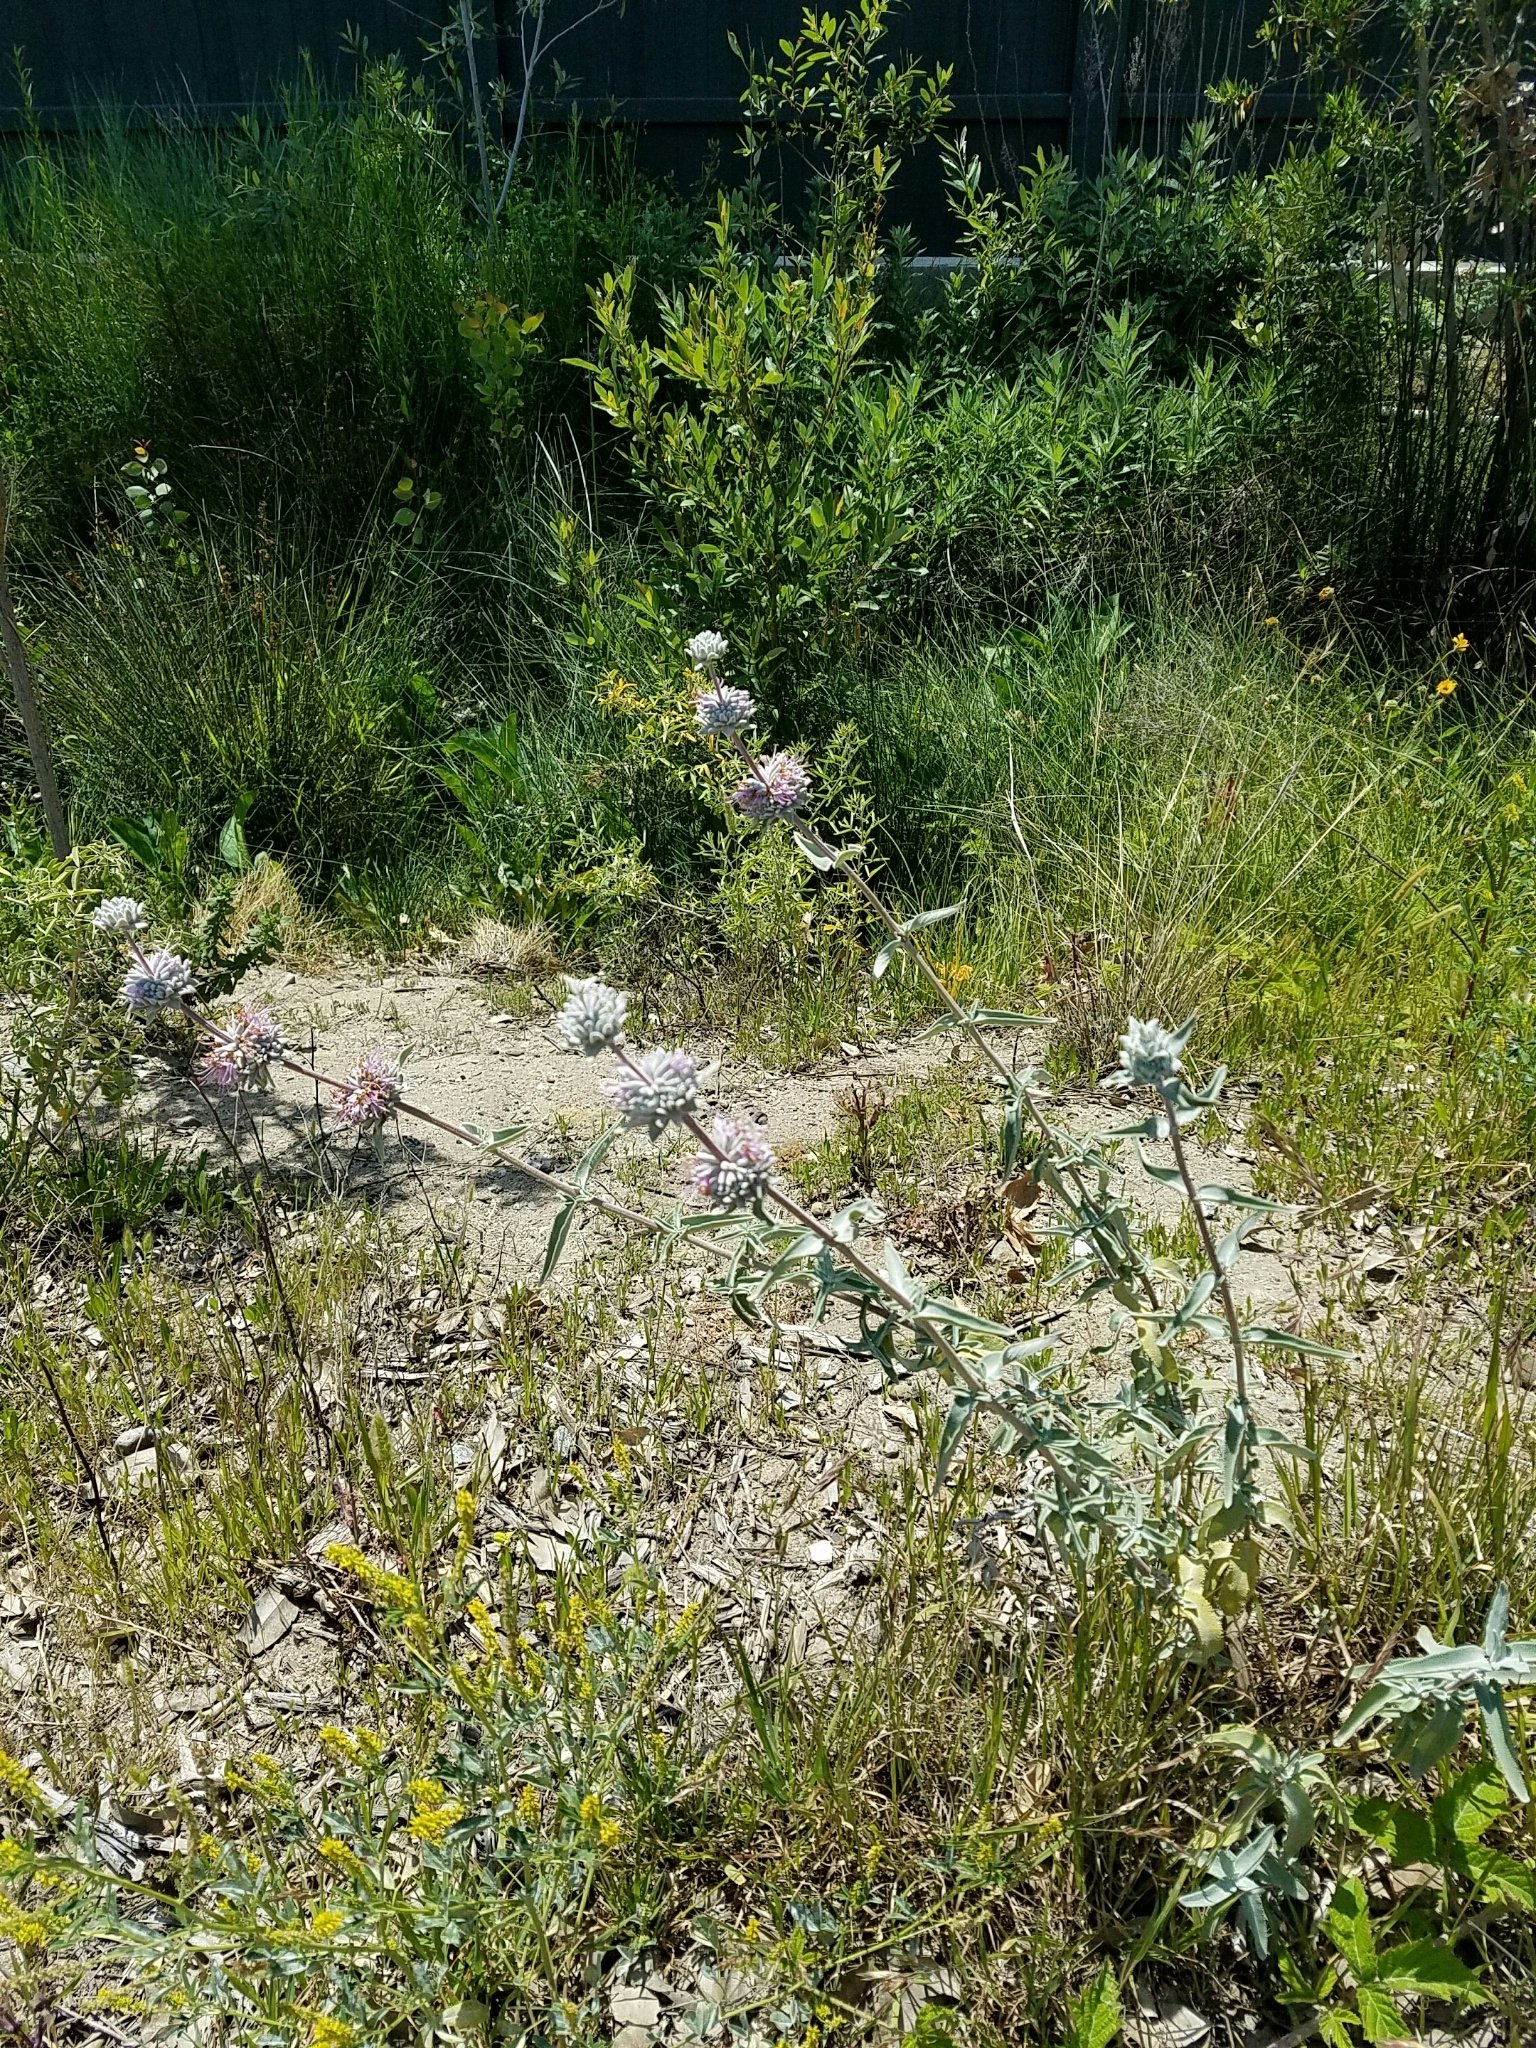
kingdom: Plantae
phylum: Tracheophyta
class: Magnoliopsida
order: Lamiales
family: Lamiaceae
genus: Salvia
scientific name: Salvia leucophylla
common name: Purple sage
